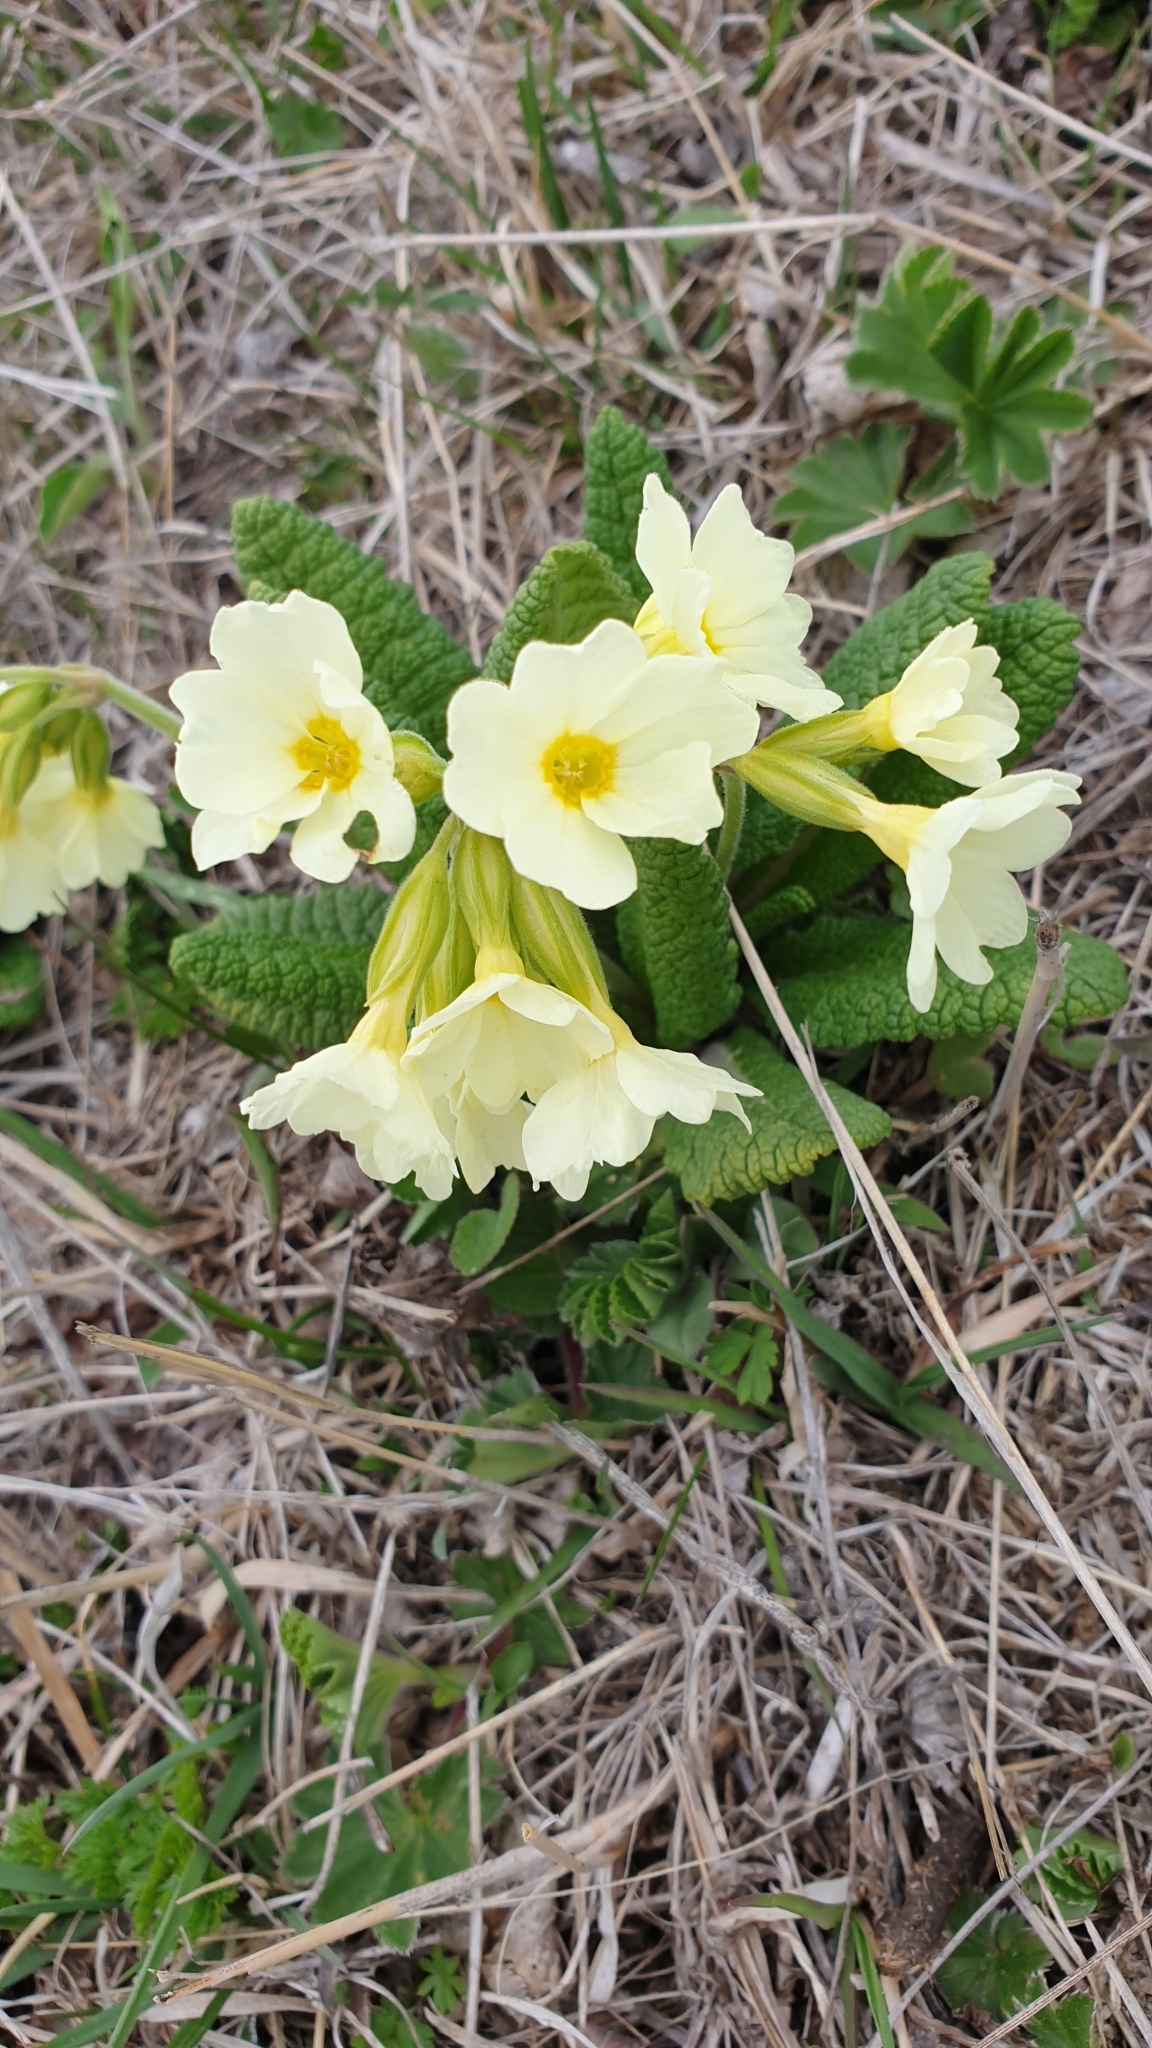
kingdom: Plantae
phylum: Tracheophyta
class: Magnoliopsida
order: Ericales
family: Primulaceae
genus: Primula
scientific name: Primula cordifolia
